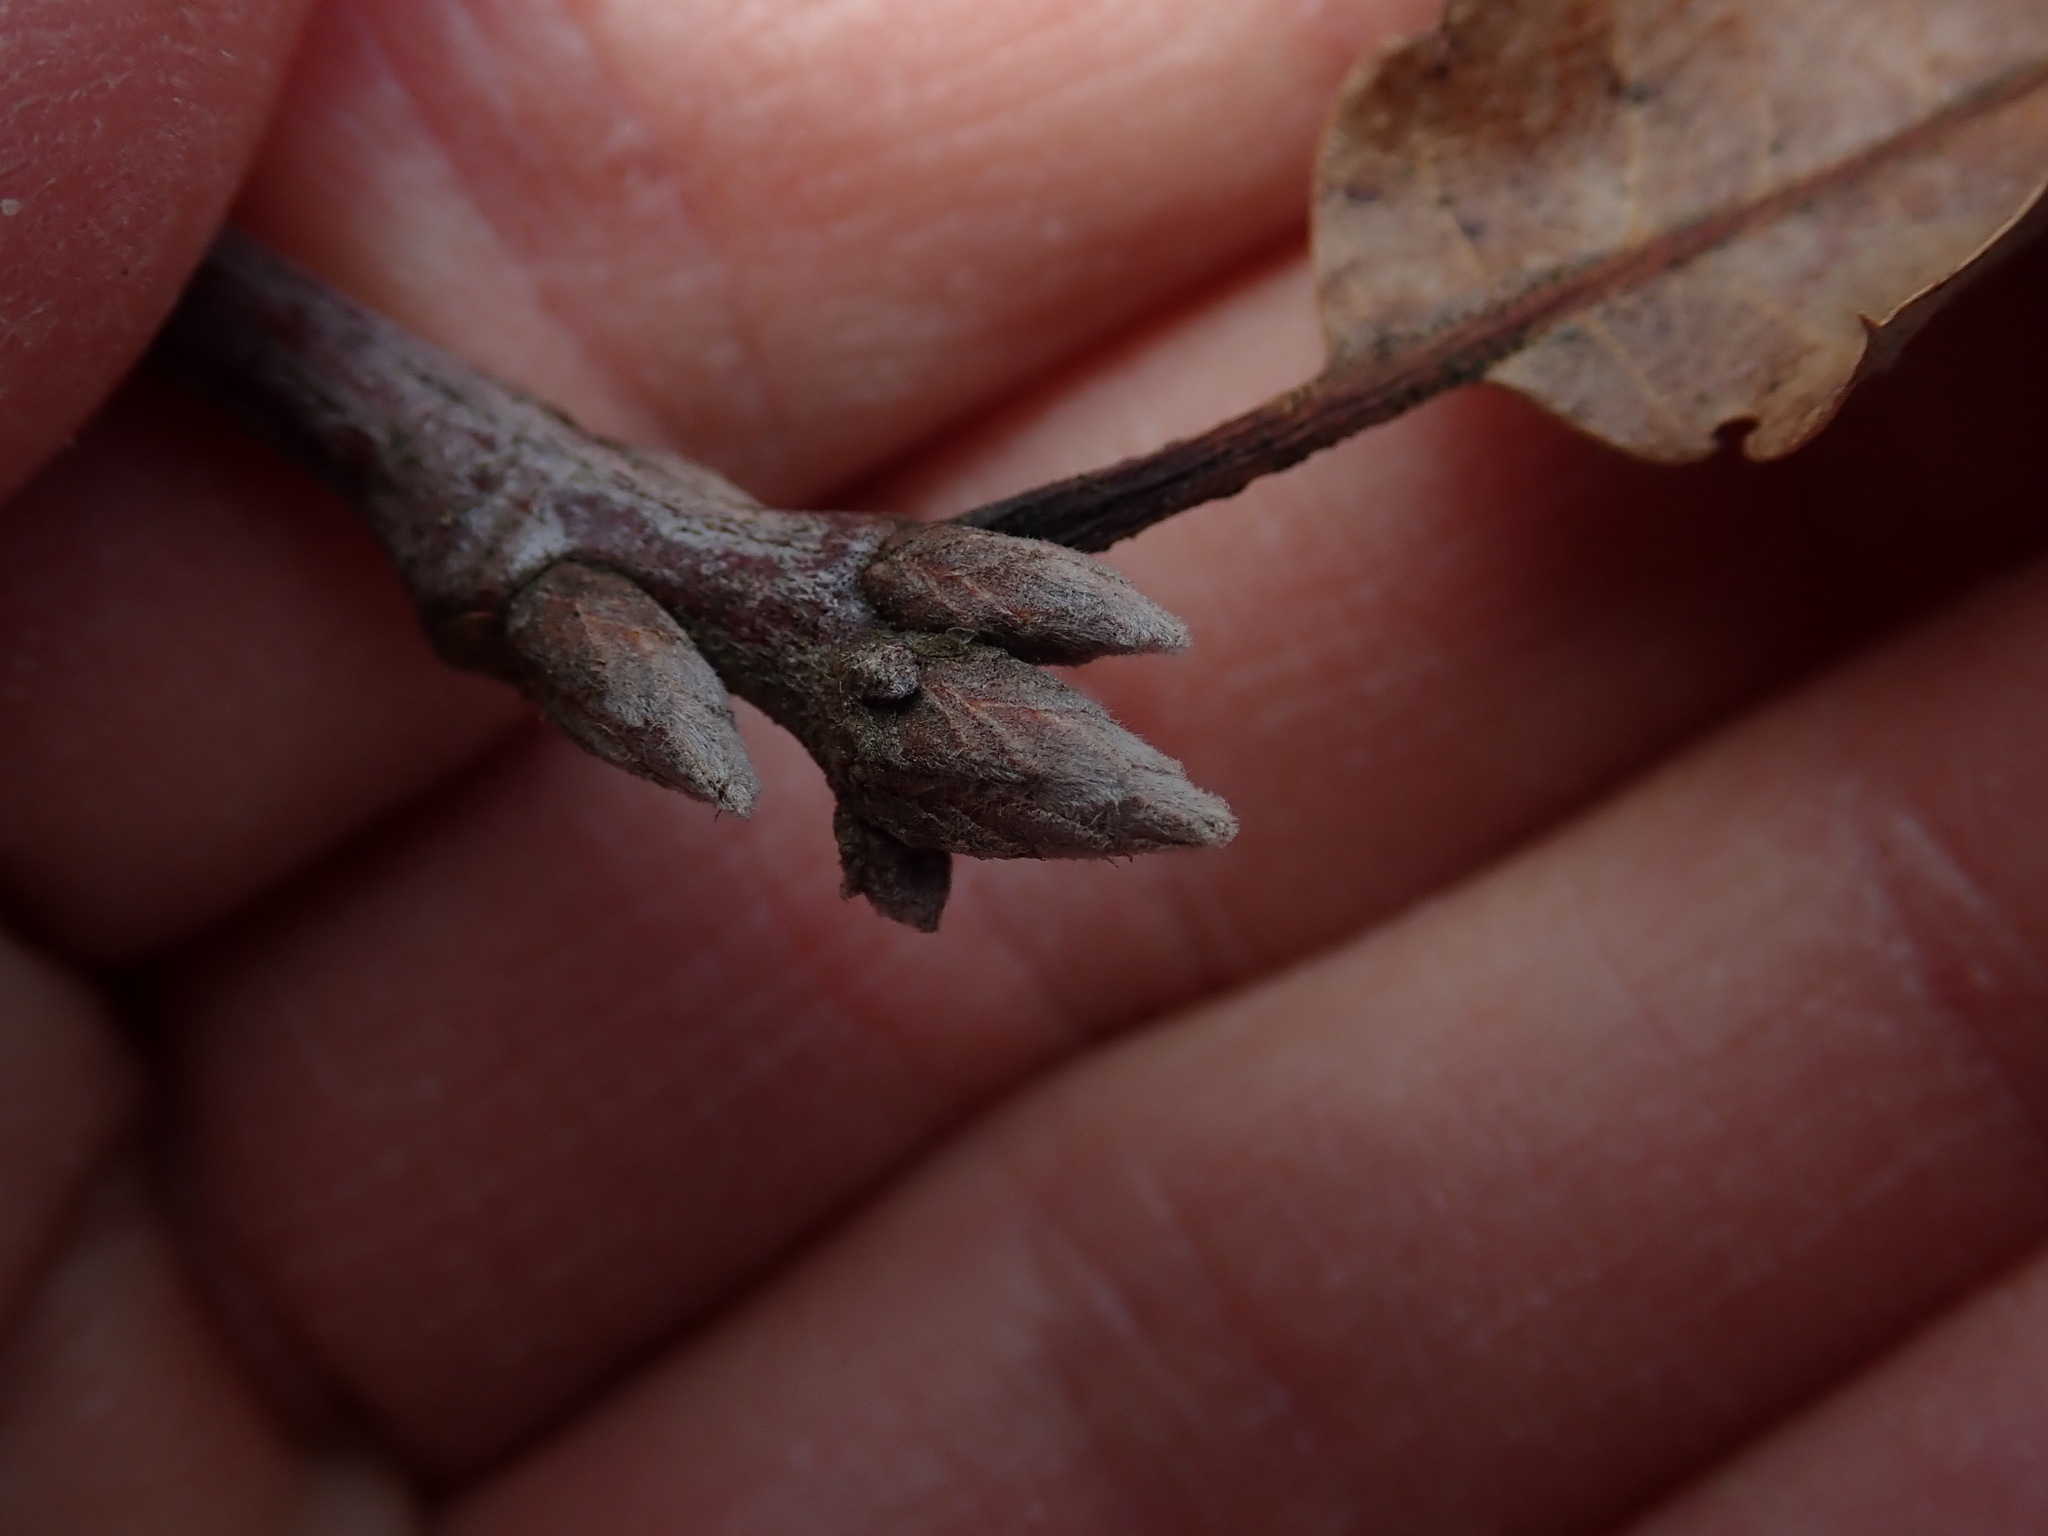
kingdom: Plantae
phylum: Tracheophyta
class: Magnoliopsida
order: Fagales
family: Fagaceae
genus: Quercus
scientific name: Quercus velutina
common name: Black oak
